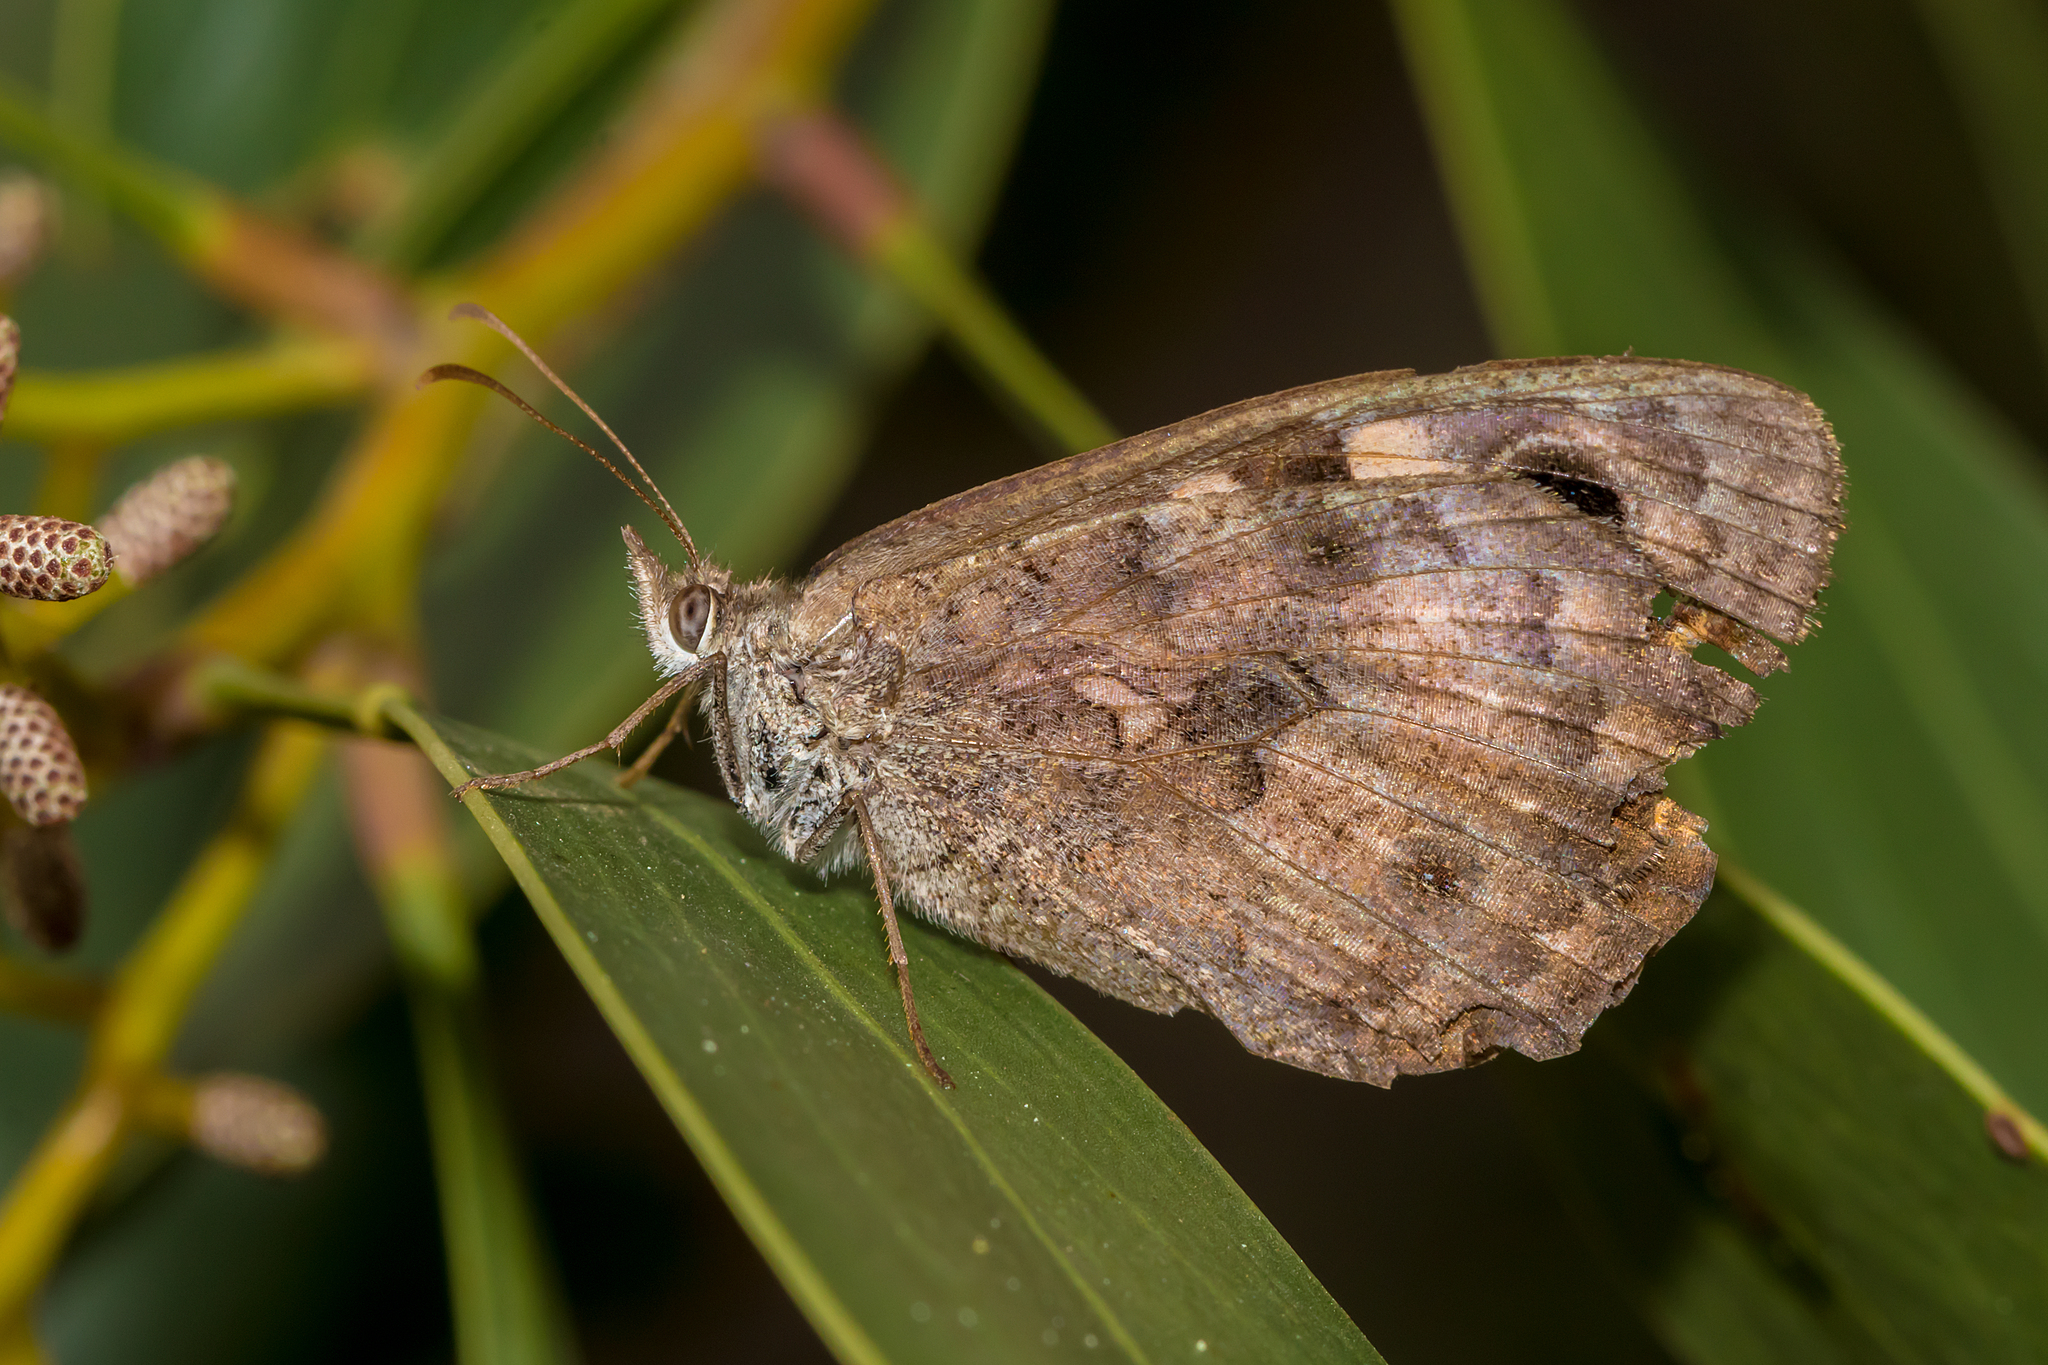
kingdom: Animalia
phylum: Arthropoda
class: Insecta
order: Lepidoptera
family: Nymphalidae
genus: Geitoneura
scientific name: Geitoneura klugii
